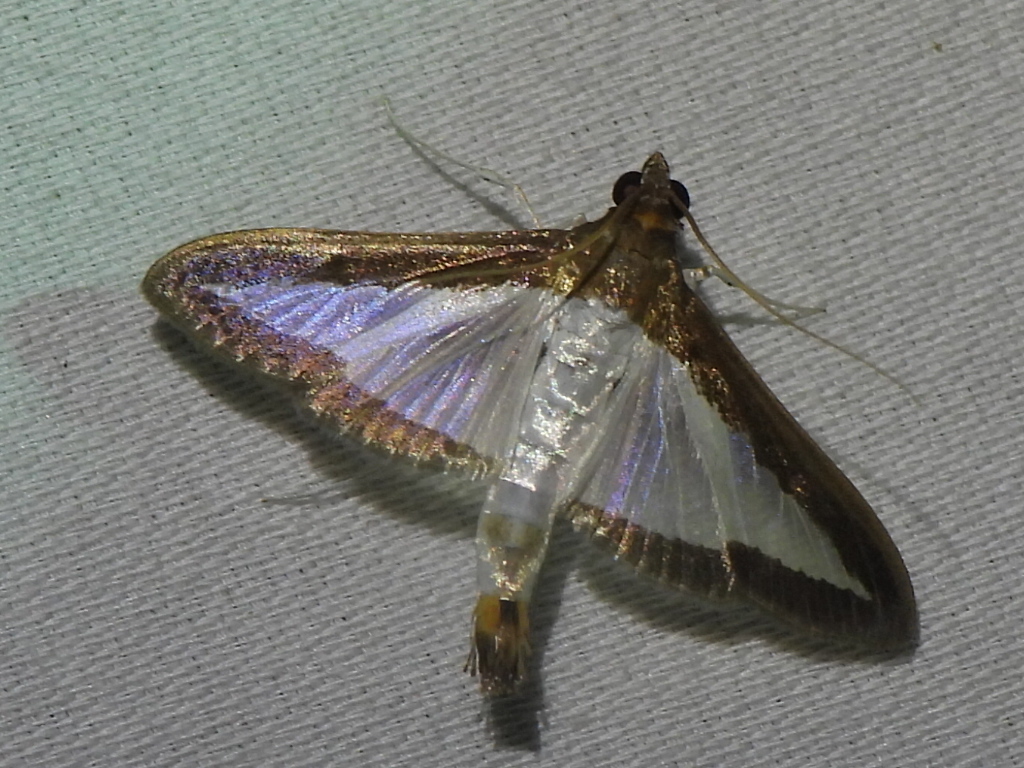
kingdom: Animalia
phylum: Arthropoda
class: Insecta
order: Lepidoptera
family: Crambidae
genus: Diaphania
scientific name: Diaphania hyalinata
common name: Melonworm
